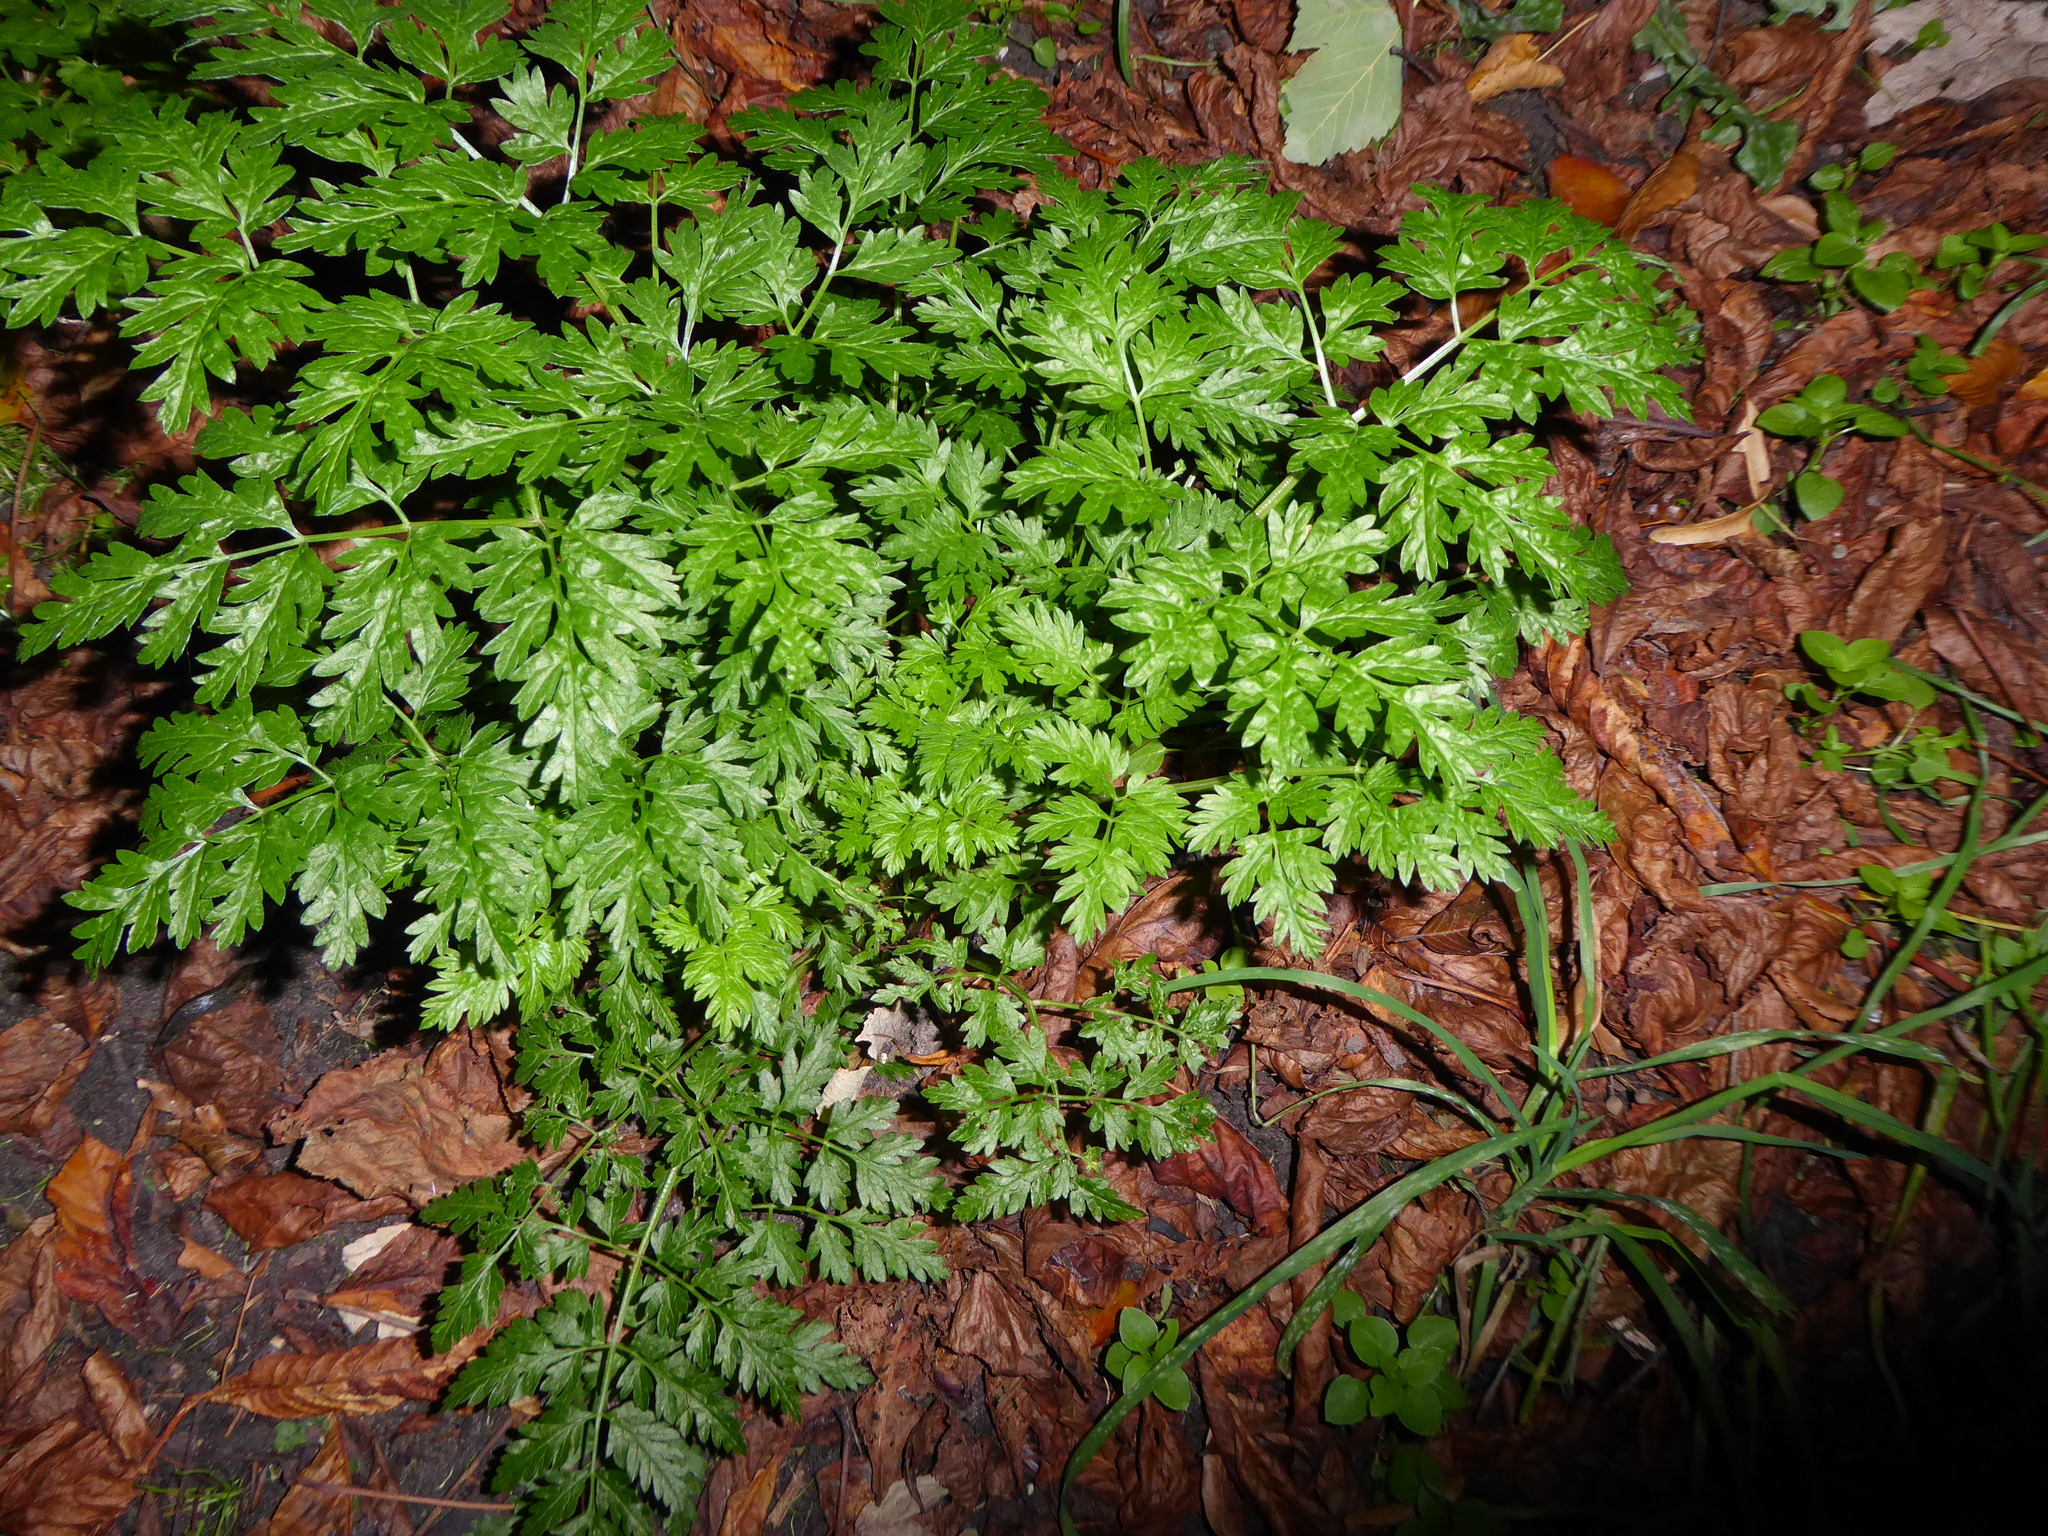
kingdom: Plantae
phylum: Tracheophyta
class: Magnoliopsida
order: Apiales
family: Apiaceae
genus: Anthriscus
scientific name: Anthriscus sylvestris
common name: Cow parsley
